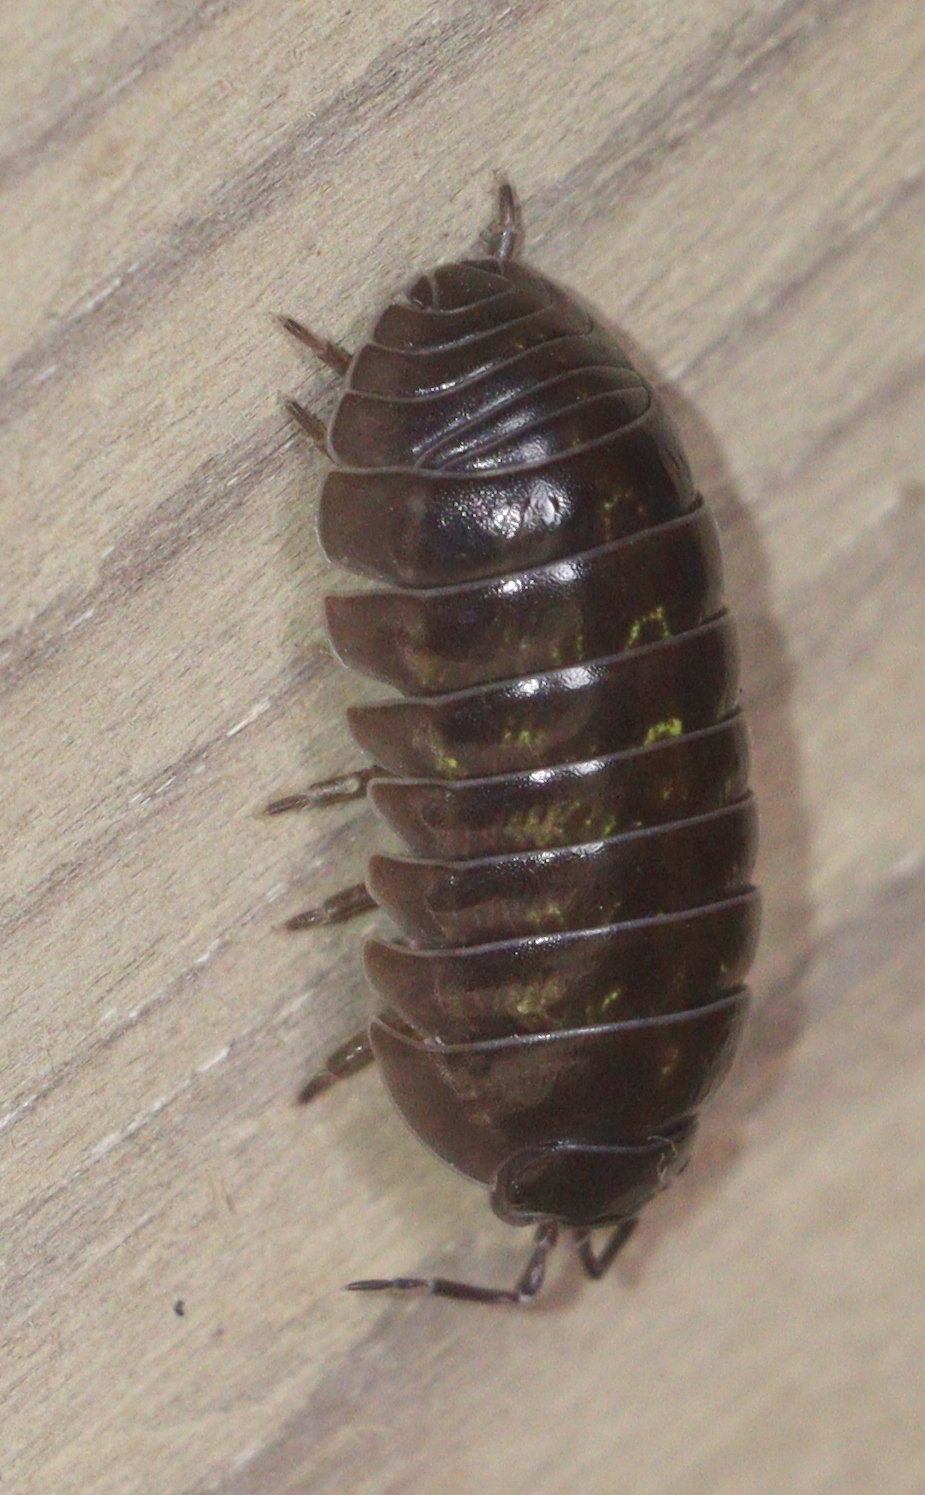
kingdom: Animalia
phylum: Arthropoda
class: Malacostraca
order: Isopoda
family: Armadillidiidae
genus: Armadillidium
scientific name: Armadillidium vulgare
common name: Common pill woodlouse
